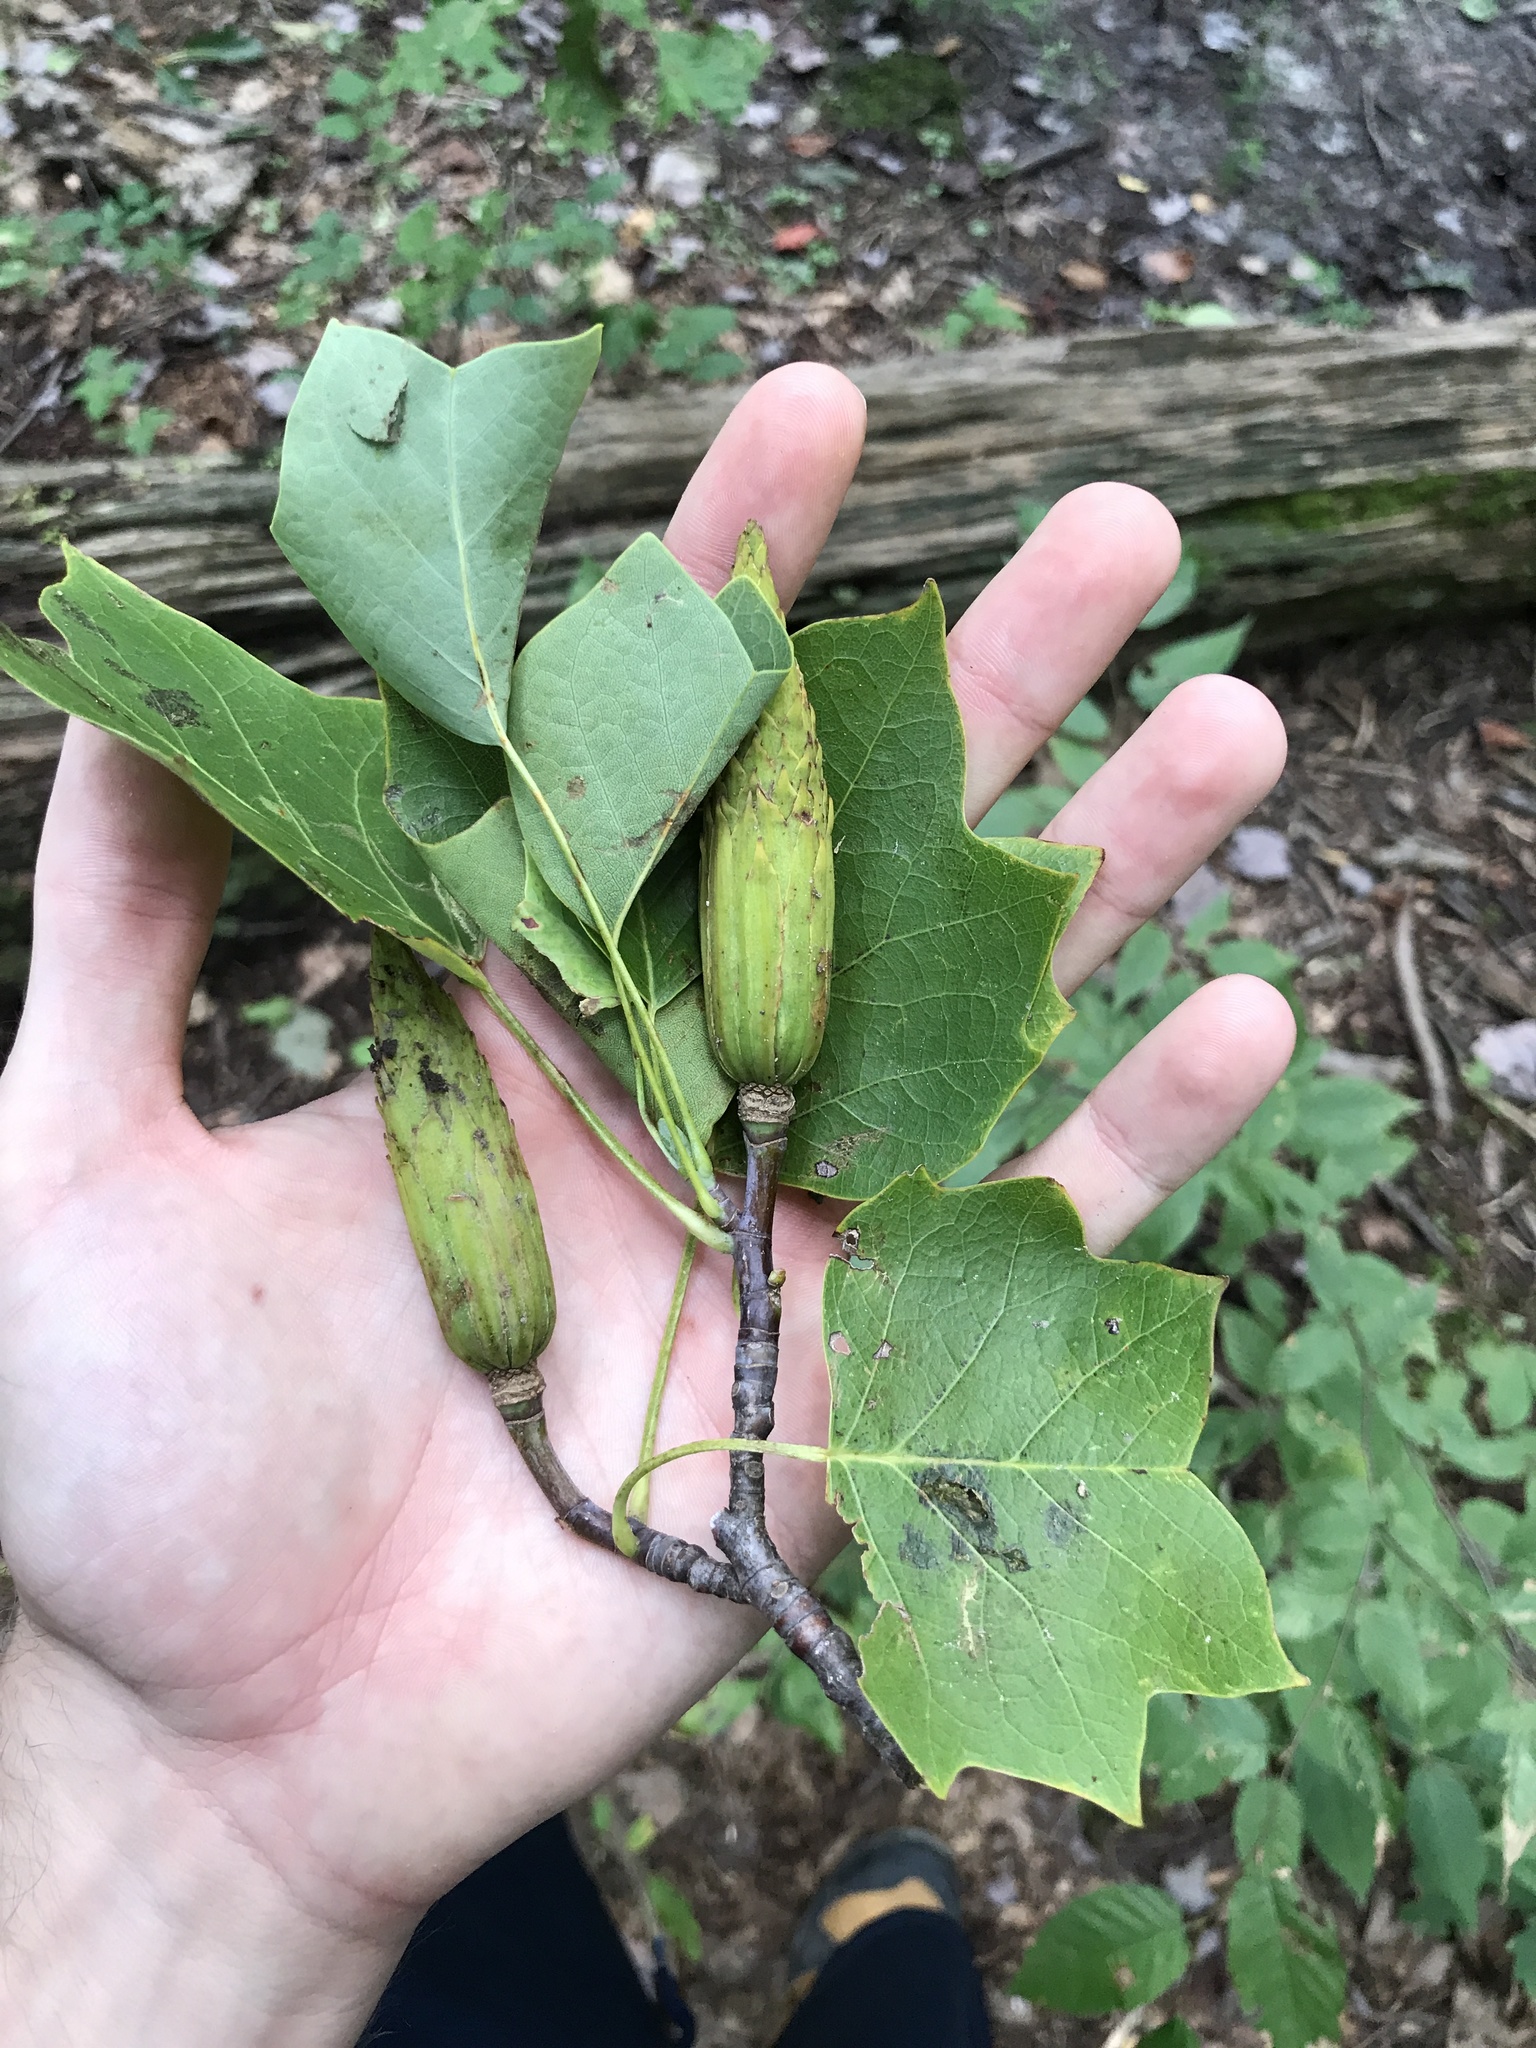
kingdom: Plantae
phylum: Tracheophyta
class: Magnoliopsida
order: Magnoliales
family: Magnoliaceae
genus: Liriodendron
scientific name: Liriodendron tulipifera
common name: Tulip tree
